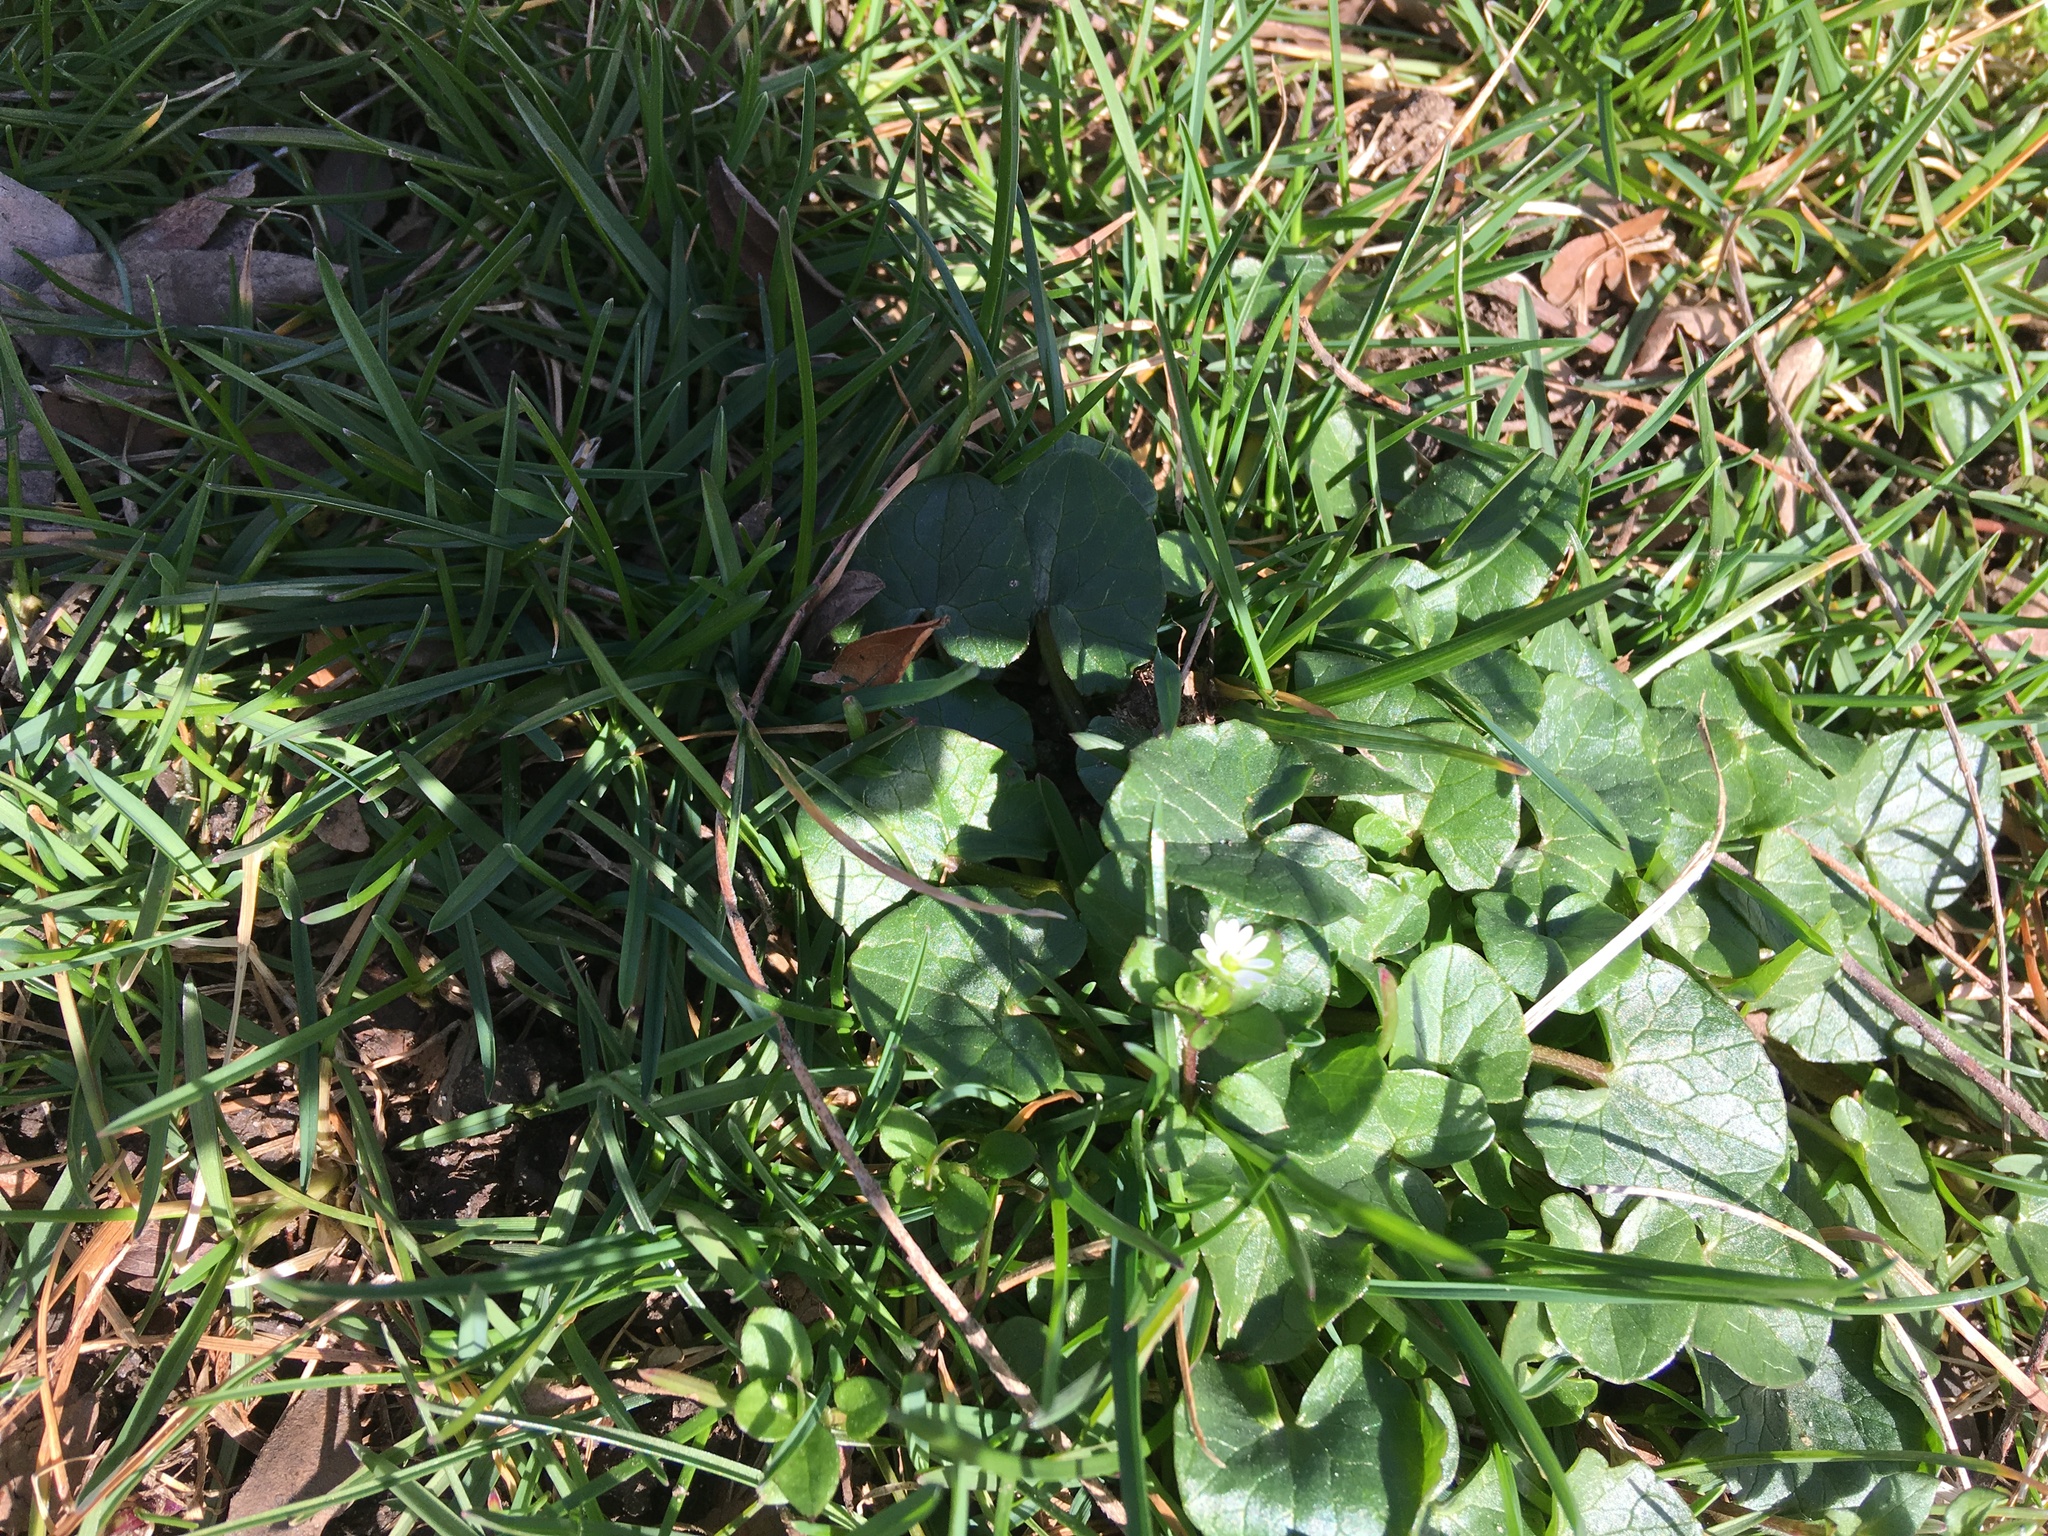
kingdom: Plantae
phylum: Tracheophyta
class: Magnoliopsida
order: Ranunculales
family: Ranunculaceae
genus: Ficaria
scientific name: Ficaria verna
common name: Lesser celandine
